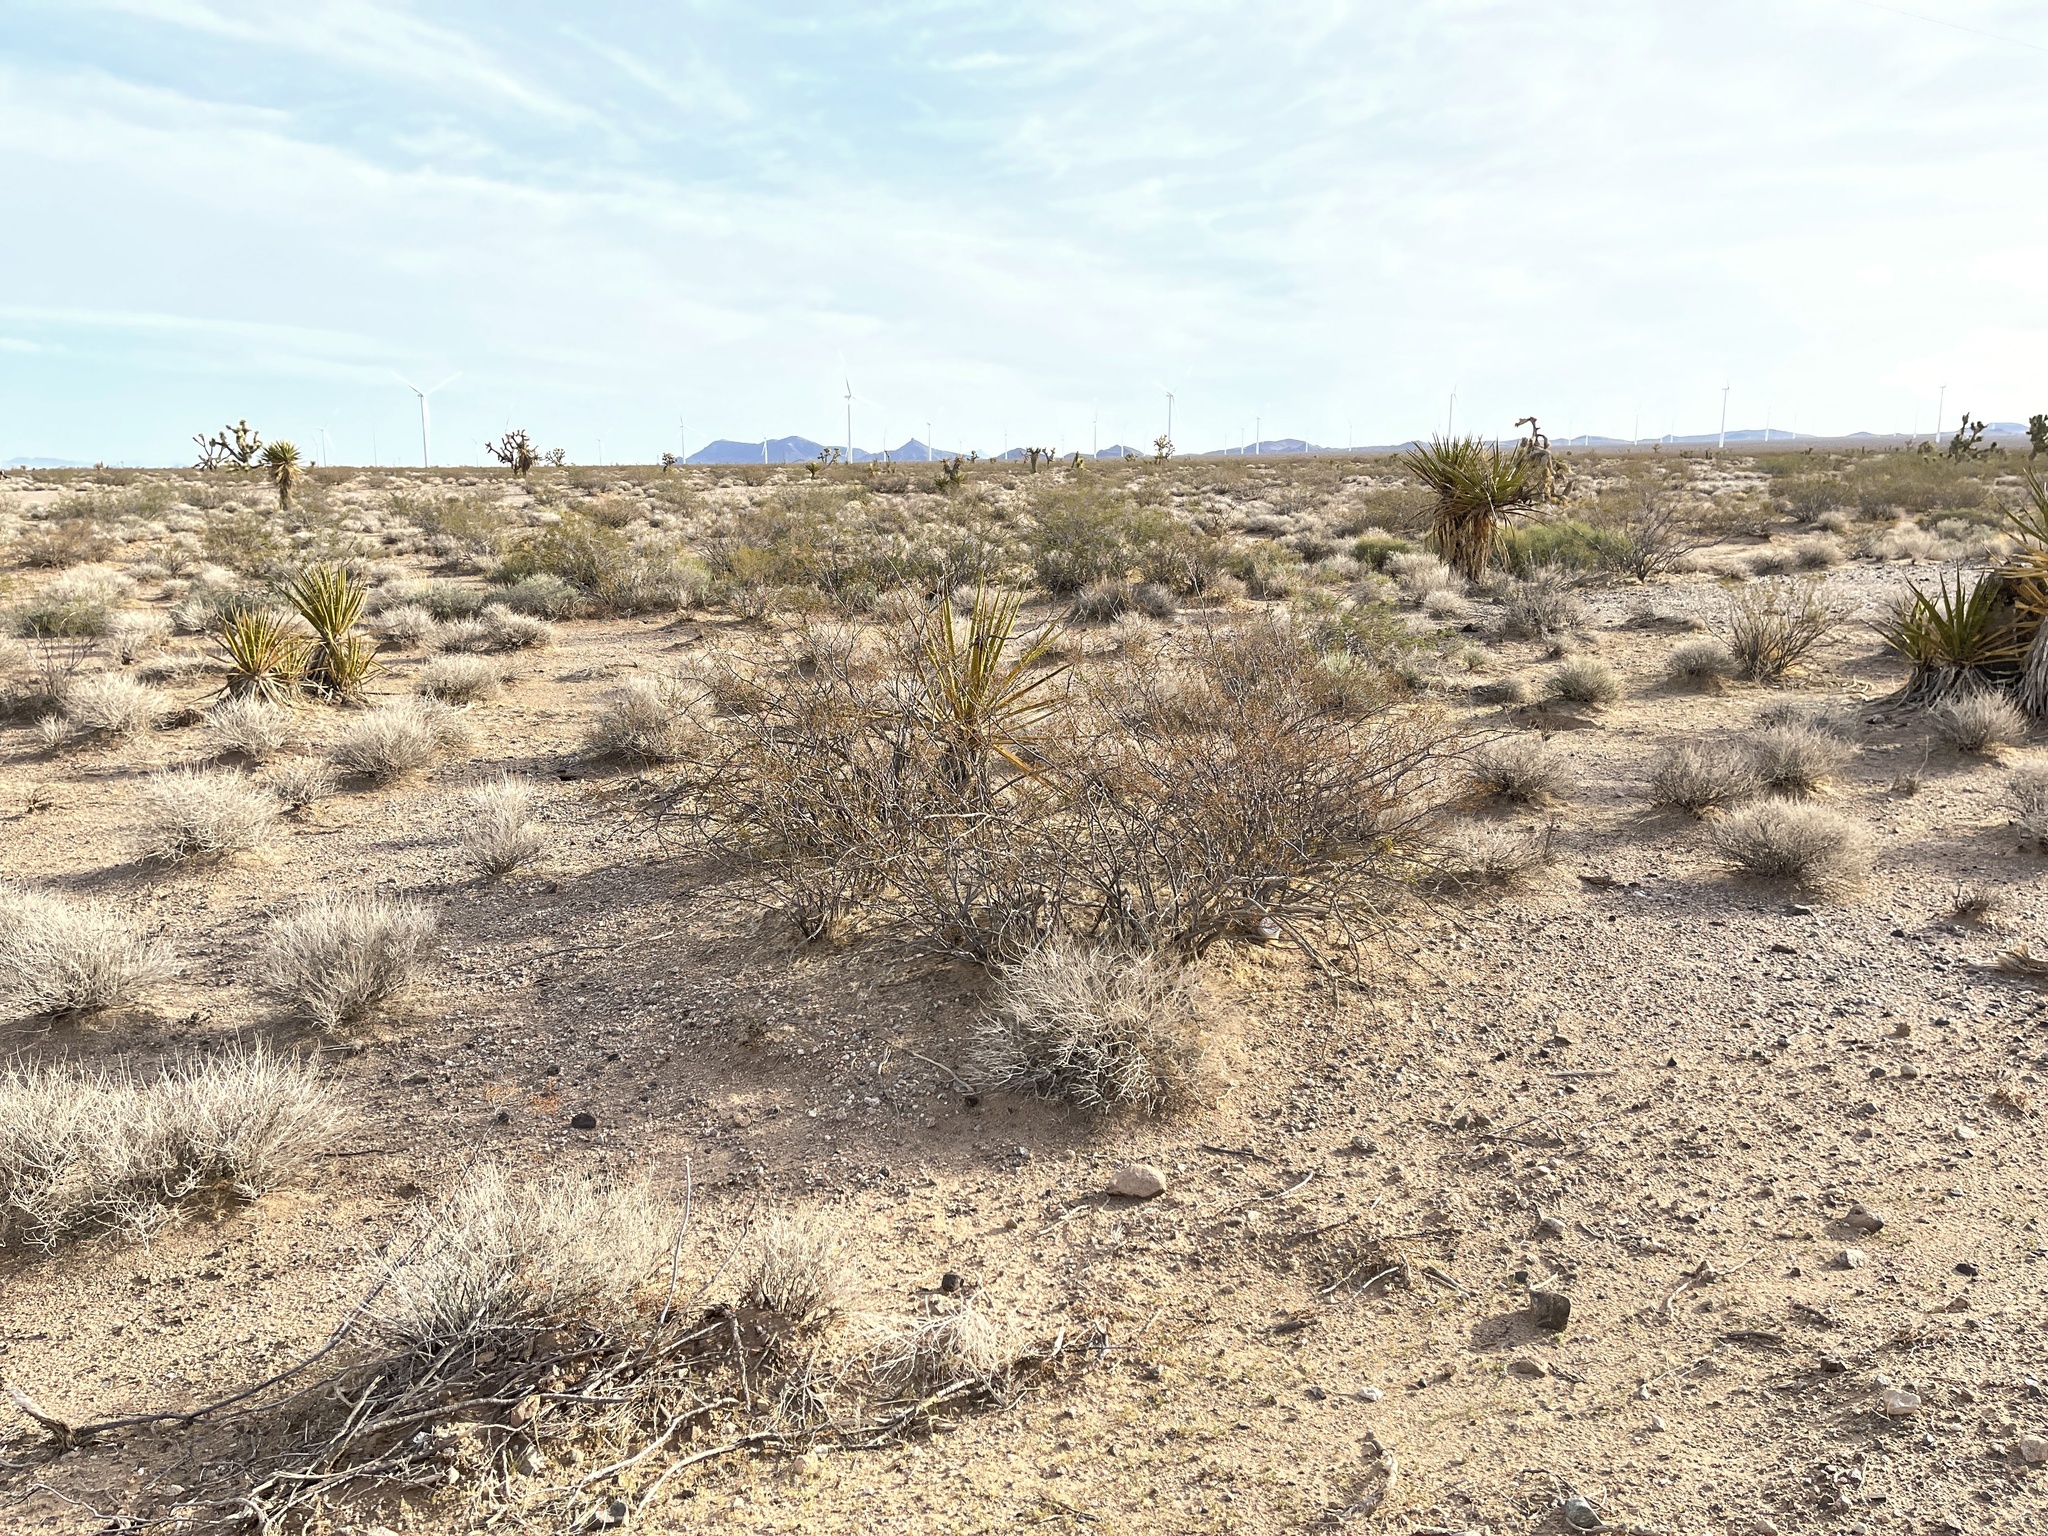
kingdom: Plantae
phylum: Tracheophyta
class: Magnoliopsida
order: Zygophyllales
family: Zygophyllaceae
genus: Larrea
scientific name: Larrea tridentata
